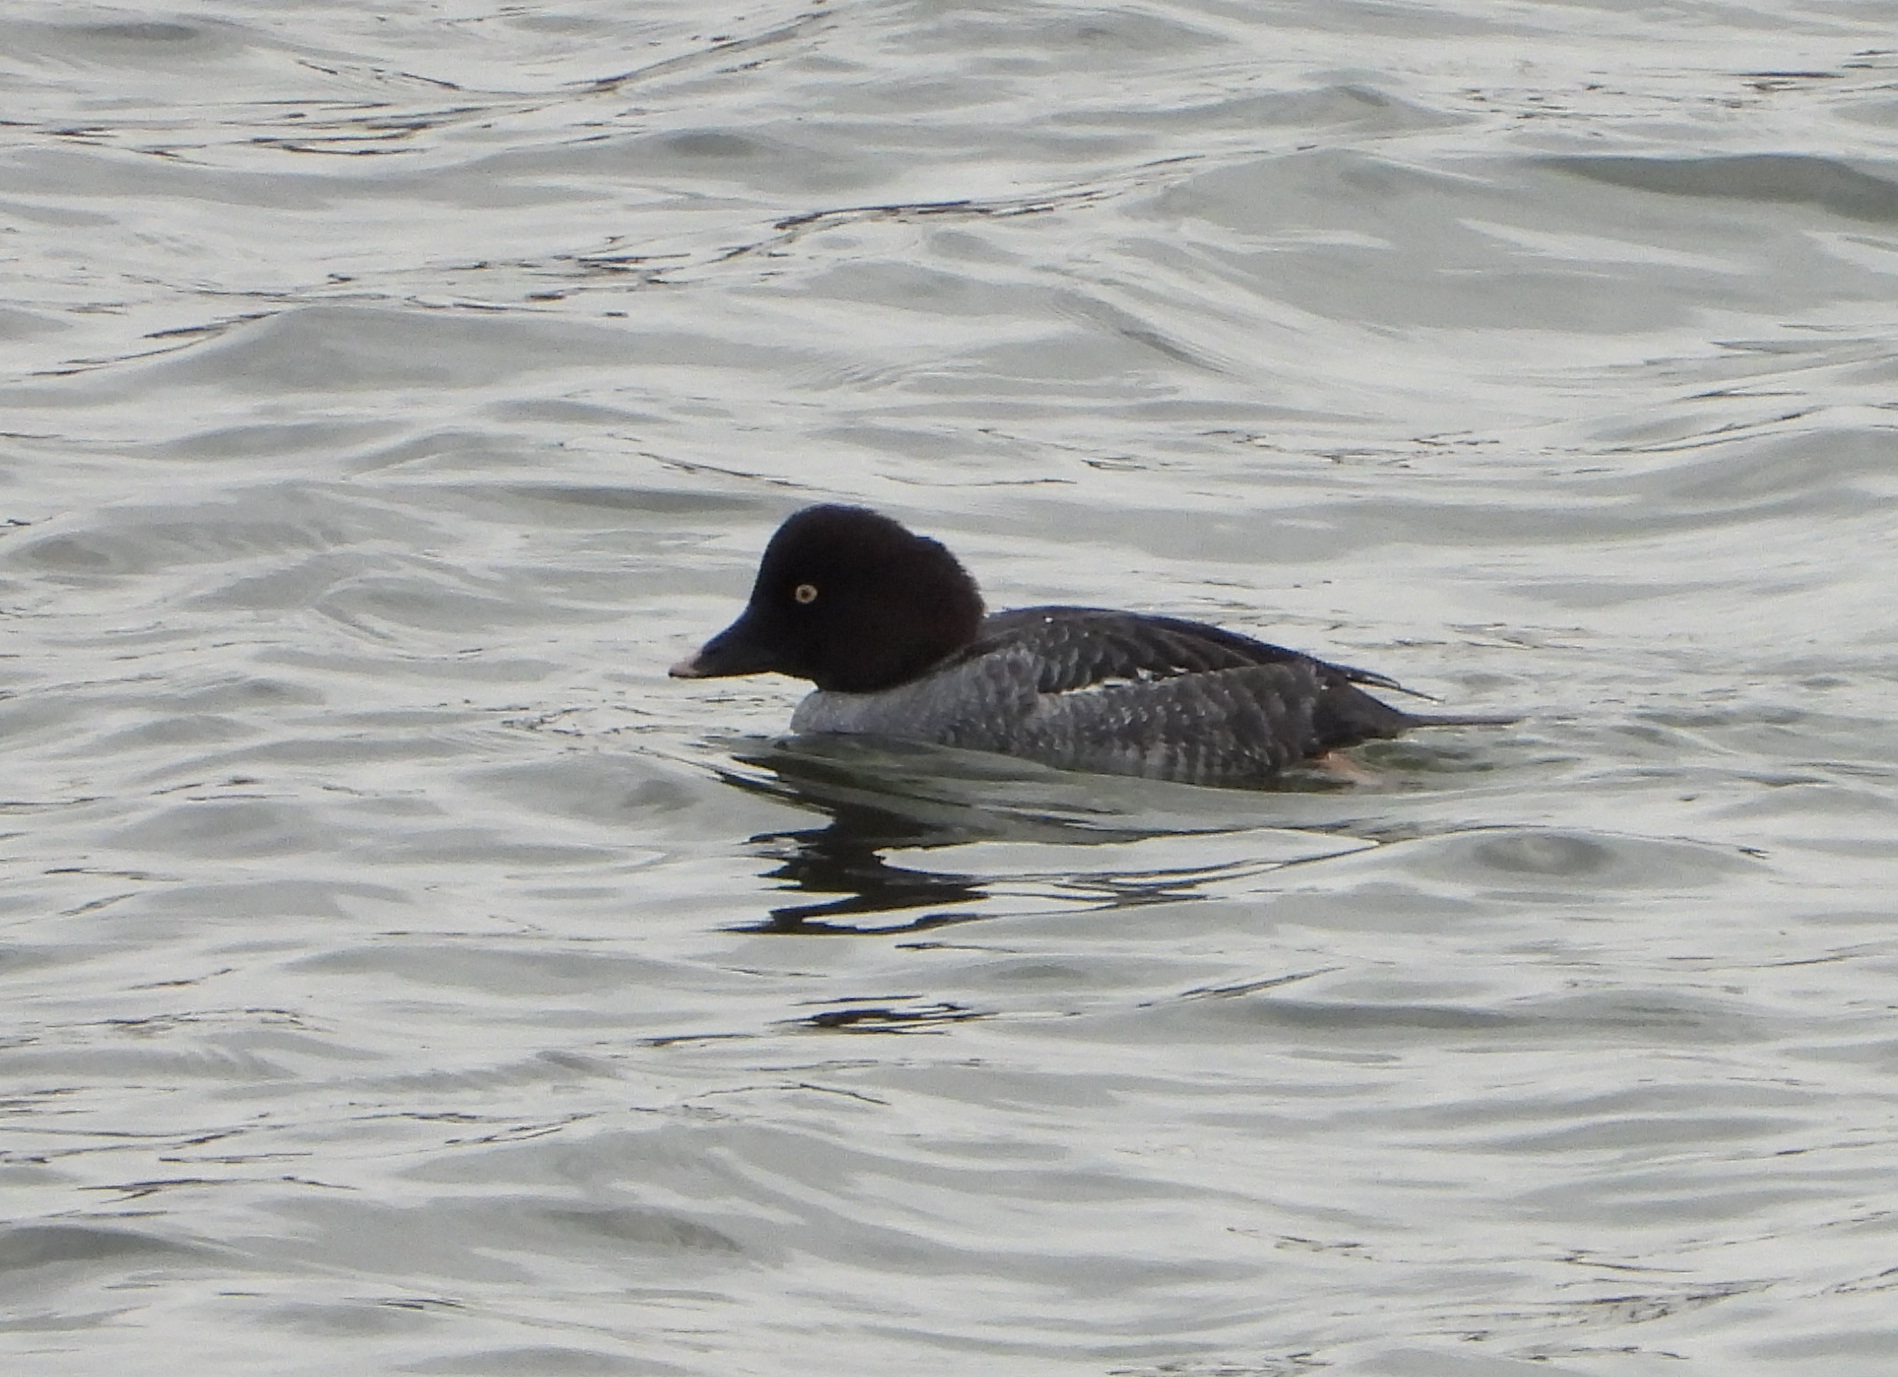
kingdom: Animalia
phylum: Chordata
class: Aves
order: Anseriformes
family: Anatidae
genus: Bucephala
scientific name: Bucephala clangula
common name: Common goldeneye
